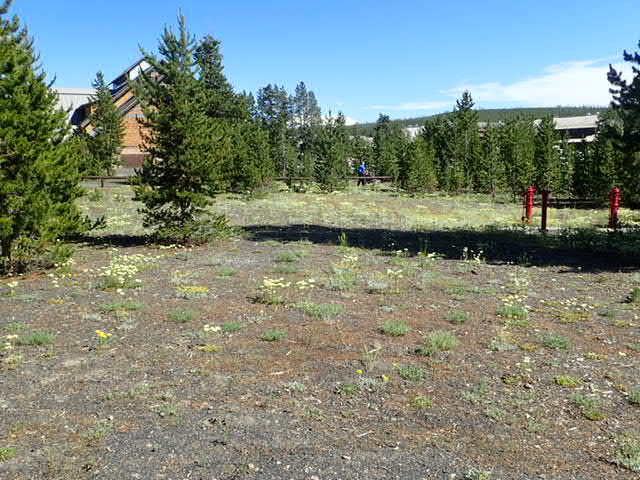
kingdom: Plantae
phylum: Tracheophyta
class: Magnoliopsida
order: Caryophyllales
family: Polygonaceae
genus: Eriogonum
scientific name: Eriogonum umbellatum
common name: Sulfur-buckwheat
